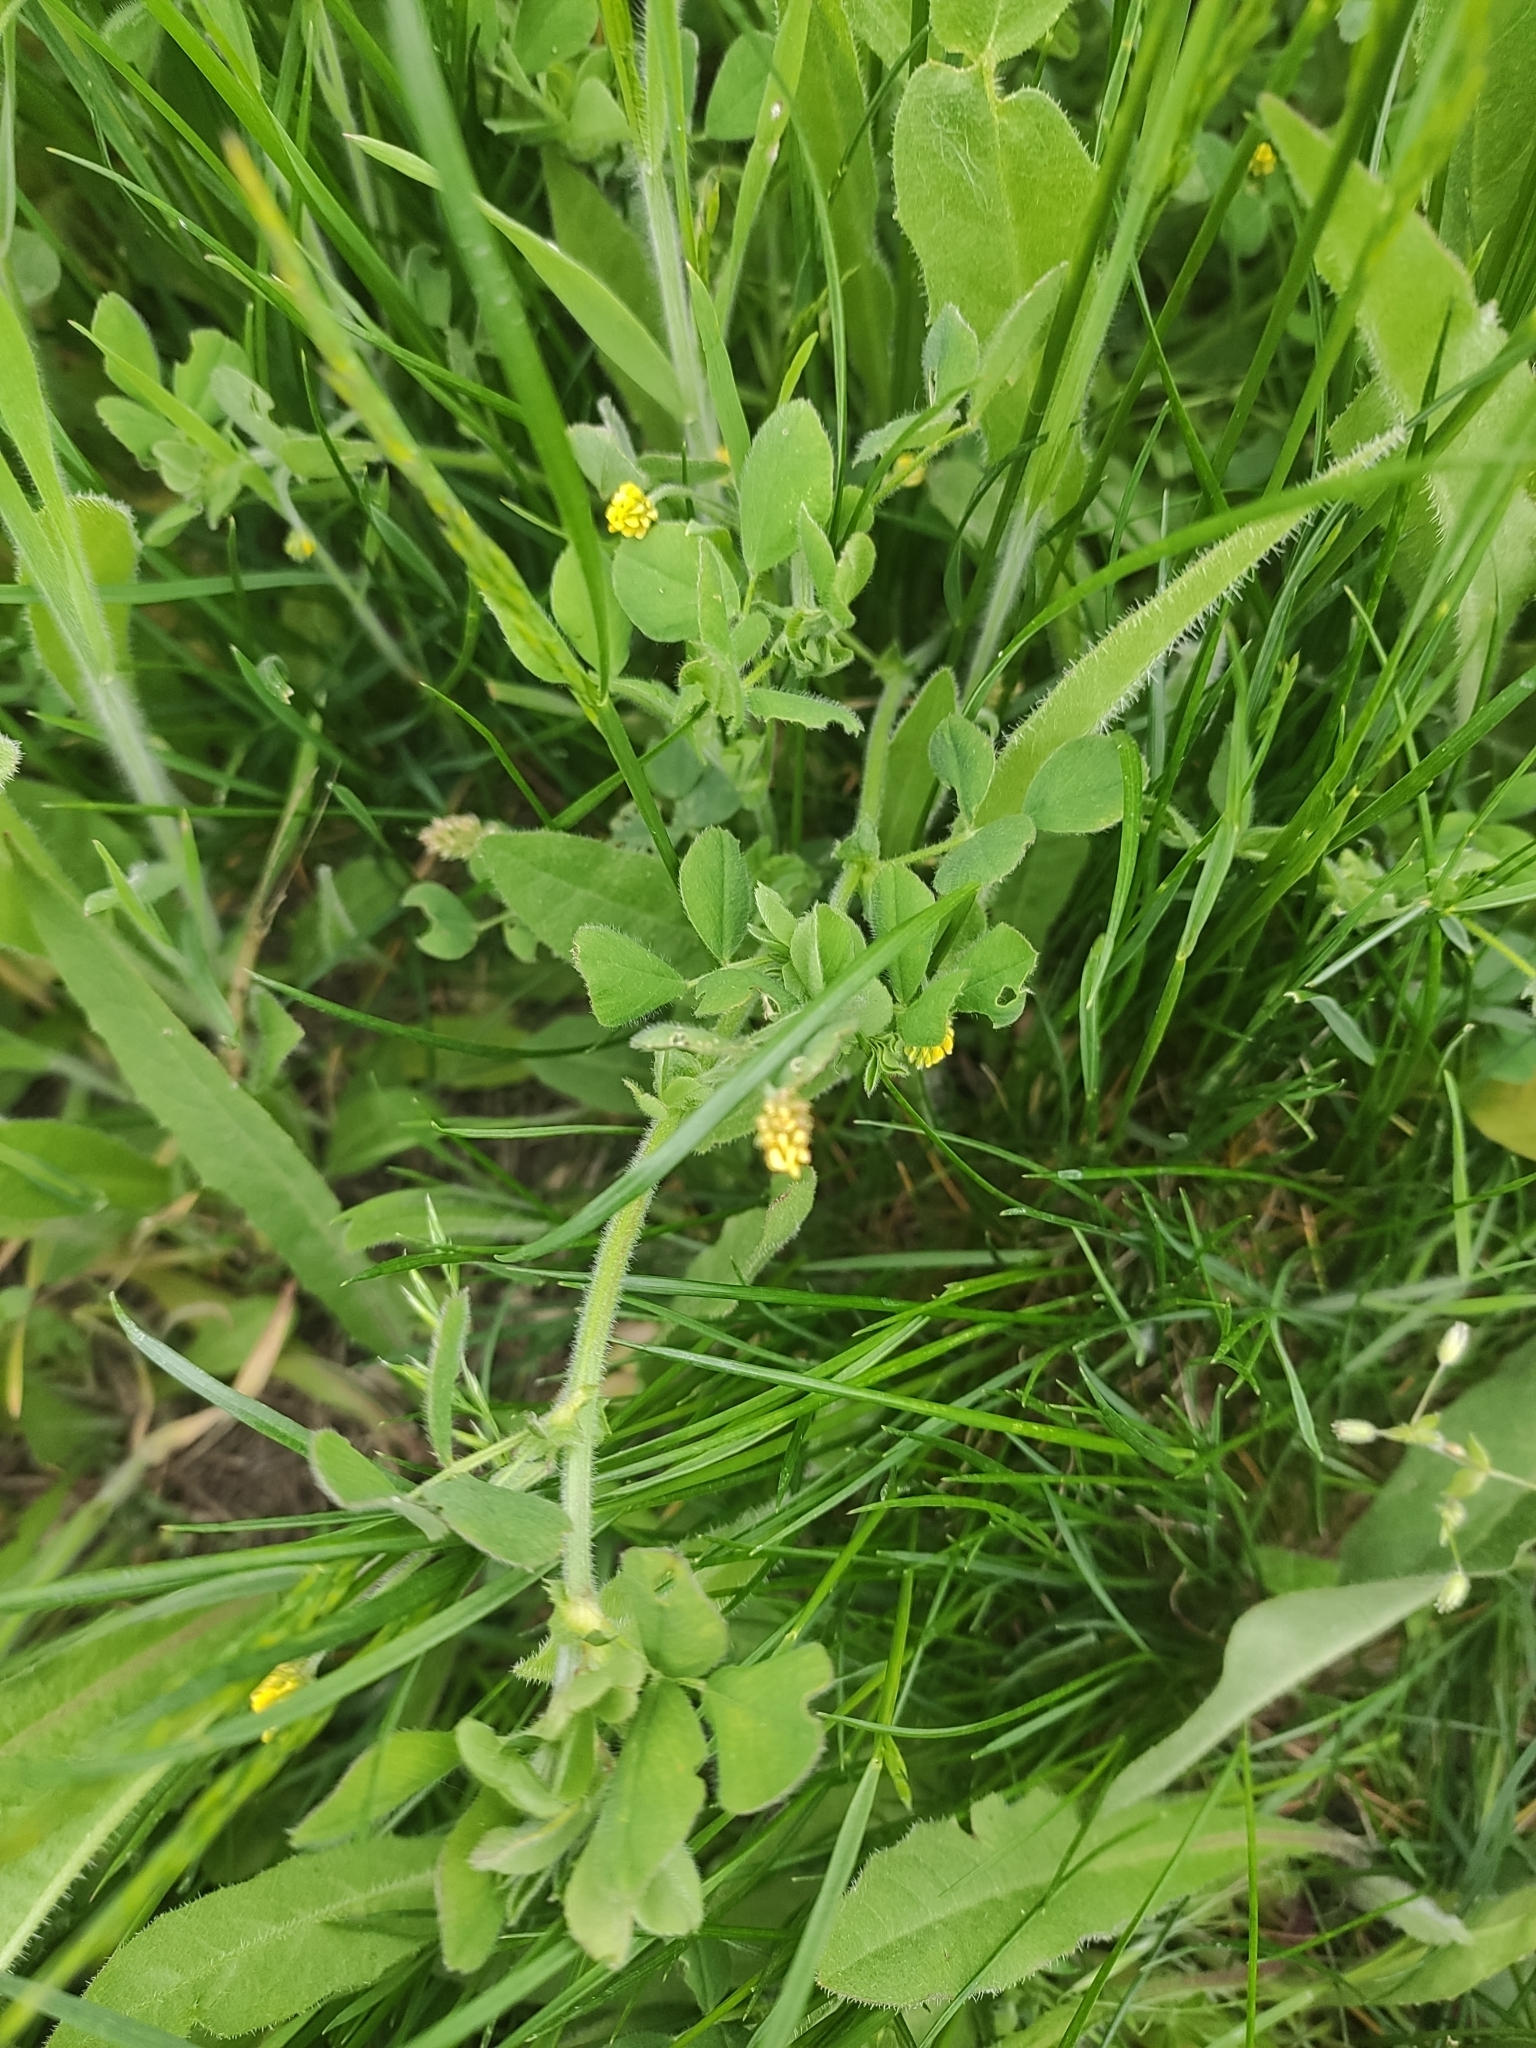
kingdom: Plantae
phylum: Tracheophyta
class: Magnoliopsida
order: Fabales
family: Fabaceae
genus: Medicago
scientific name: Medicago lupulina
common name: Black medick
